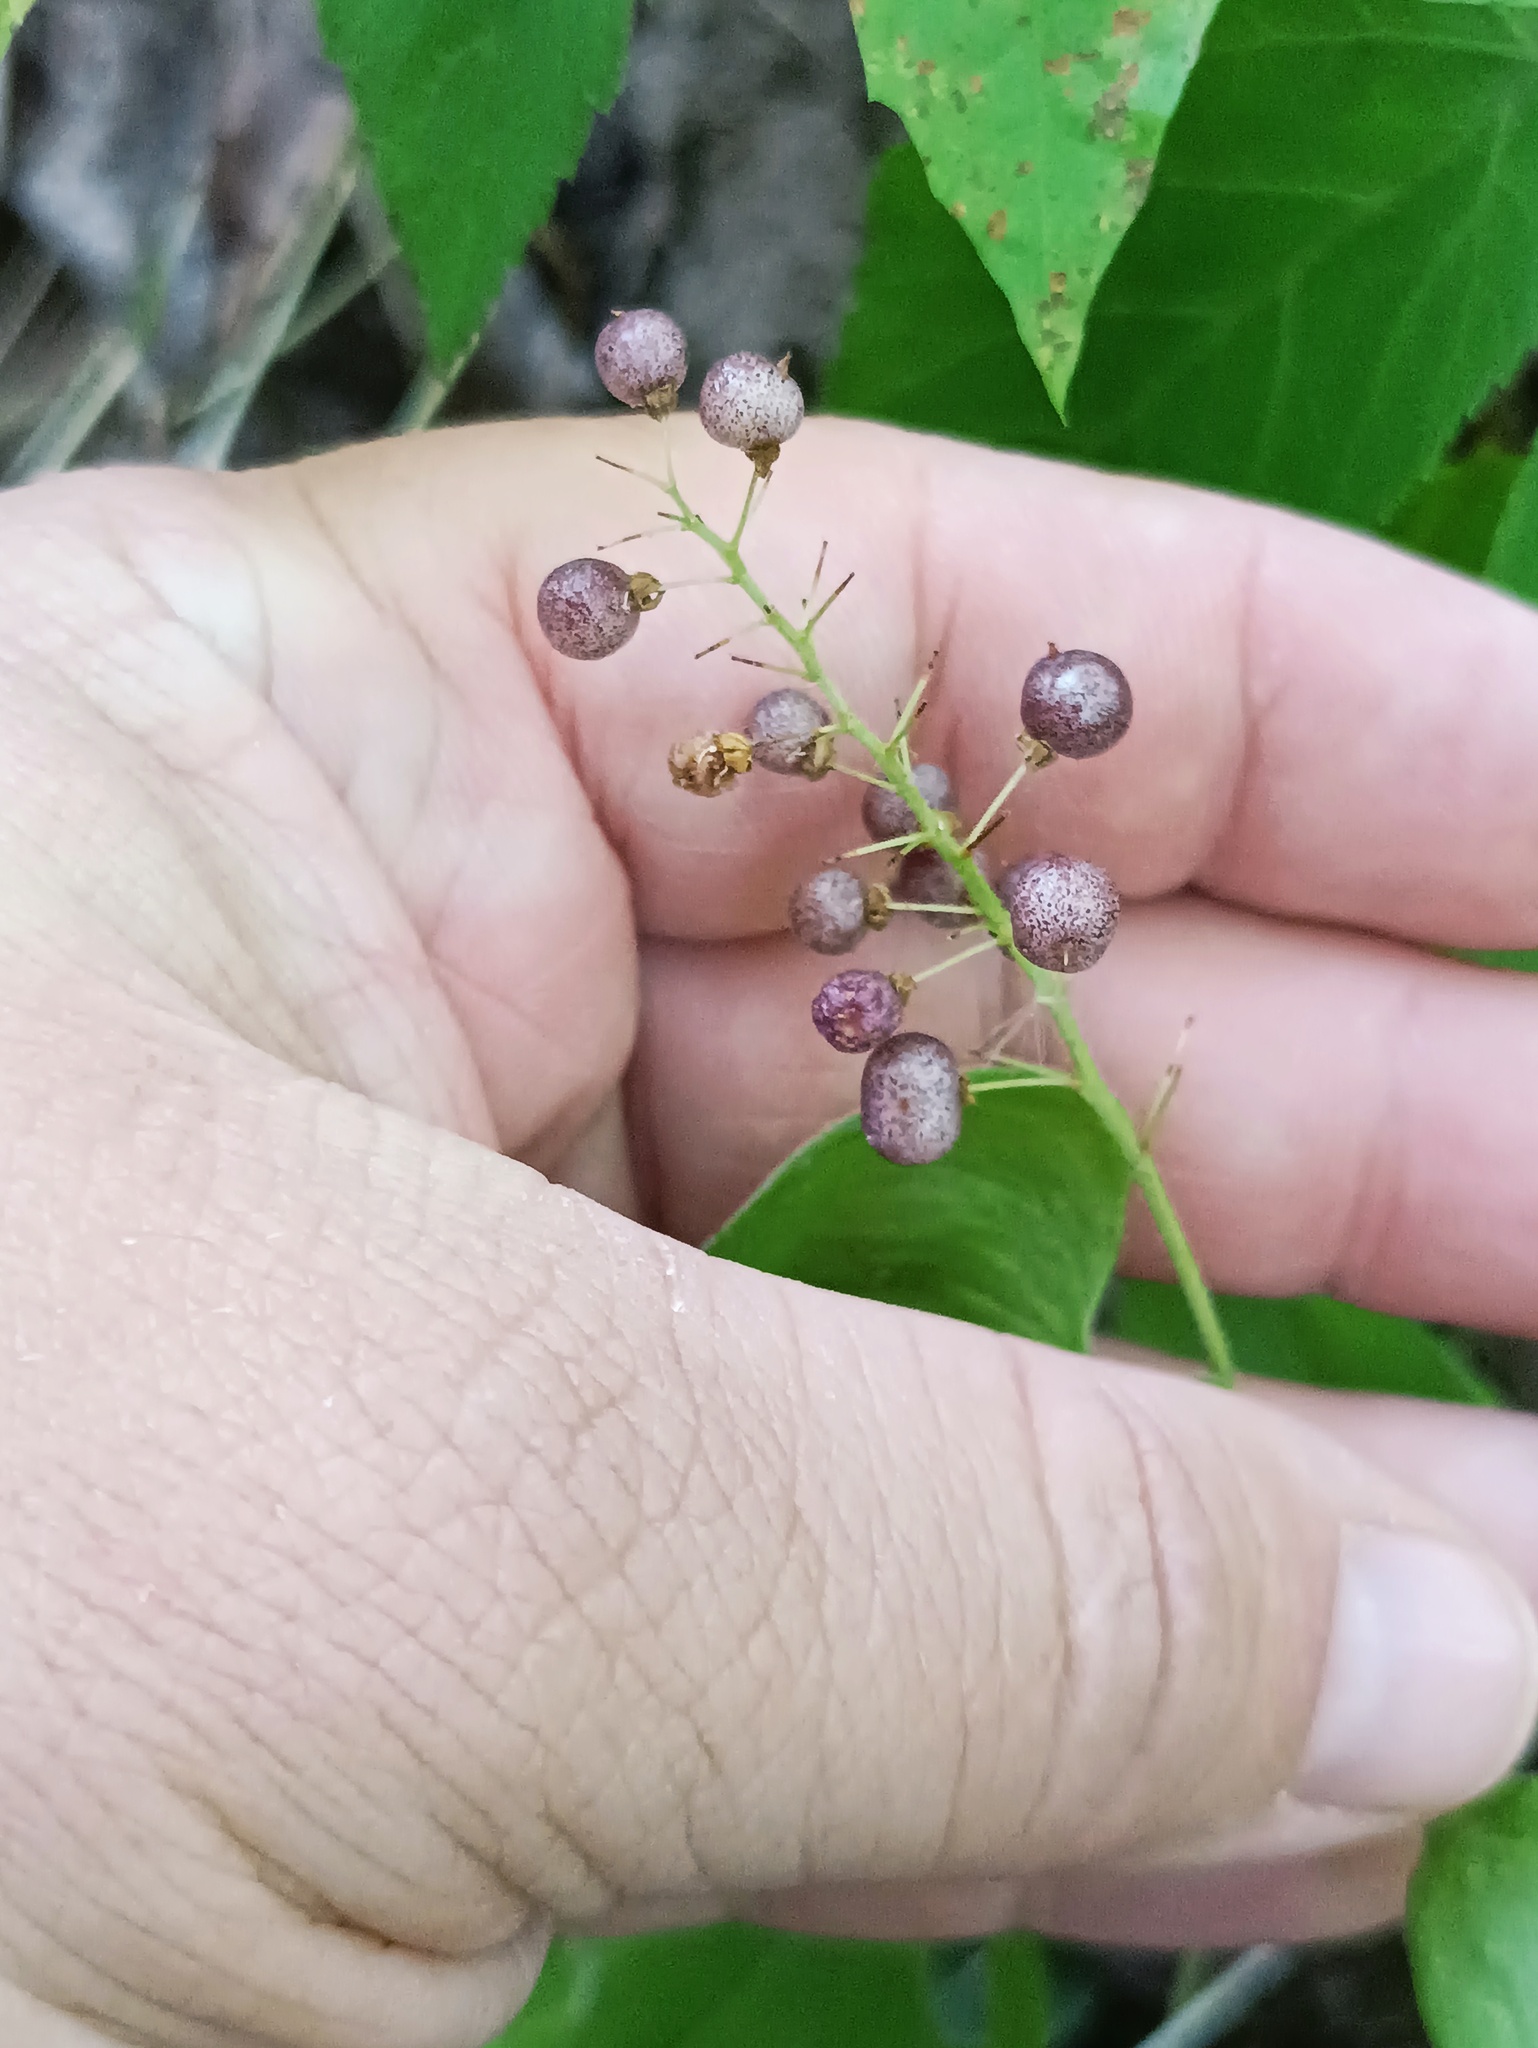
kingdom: Plantae
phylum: Tracheophyta
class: Liliopsida
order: Asparagales
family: Asparagaceae
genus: Maianthemum
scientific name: Maianthemum bifolium
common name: May lily
